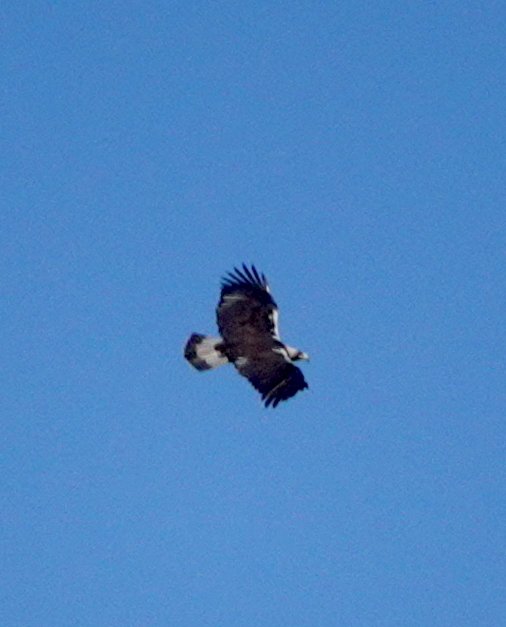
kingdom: Animalia
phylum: Chordata
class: Aves
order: Accipitriformes
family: Accipitridae
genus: Aquila
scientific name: Aquila adalberti
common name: Spanish imperial eagle
